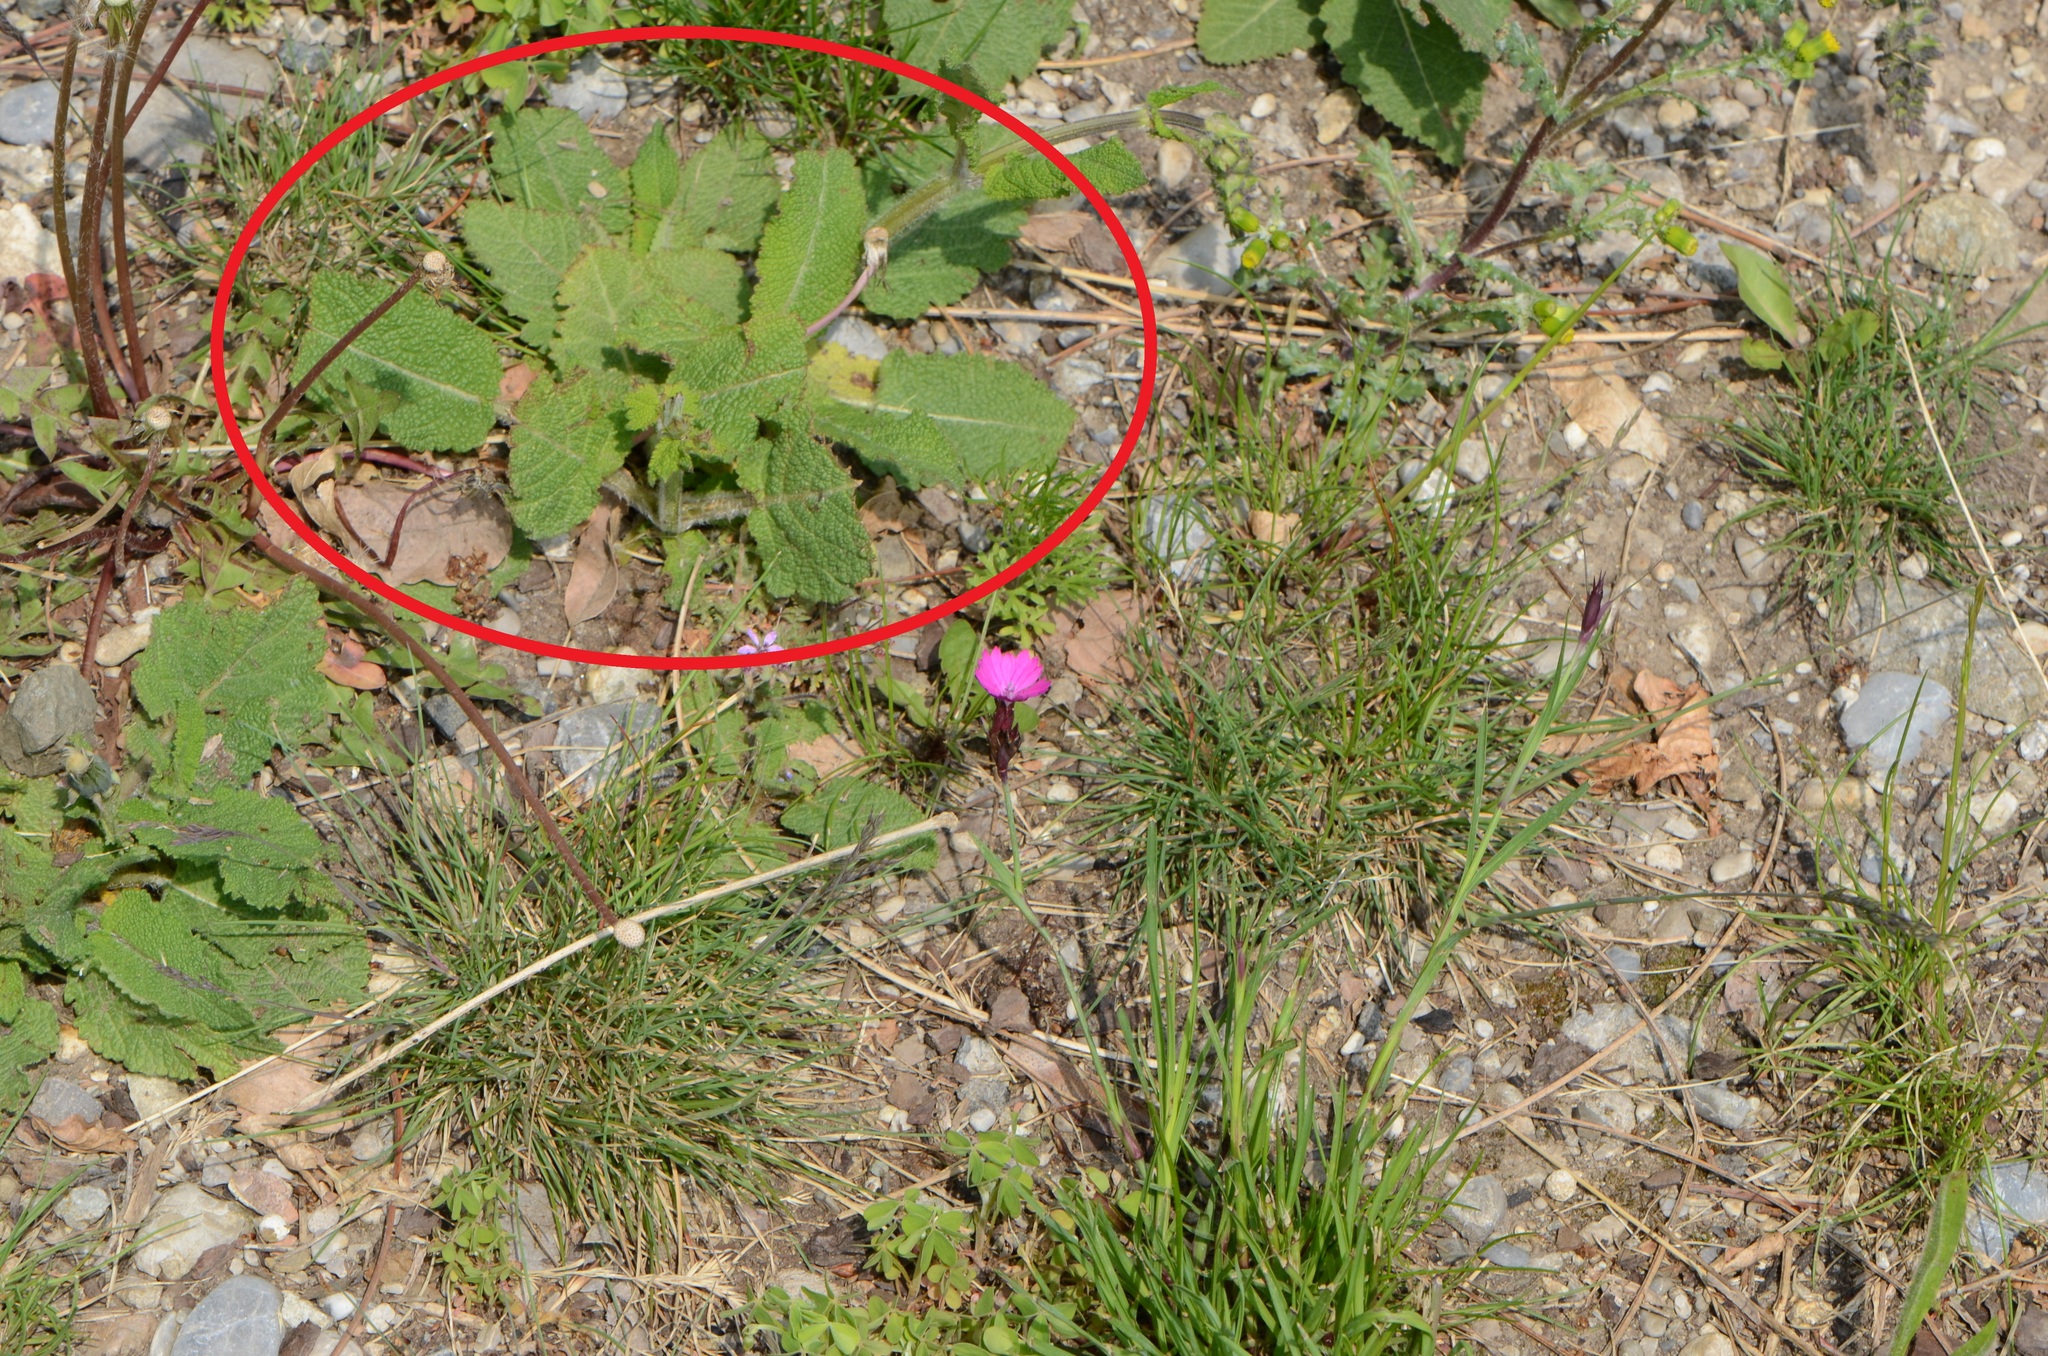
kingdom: Plantae
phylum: Tracheophyta
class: Magnoliopsida
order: Lamiales
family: Lamiaceae
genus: Salvia
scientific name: Salvia pratensis
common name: Meadow sage
